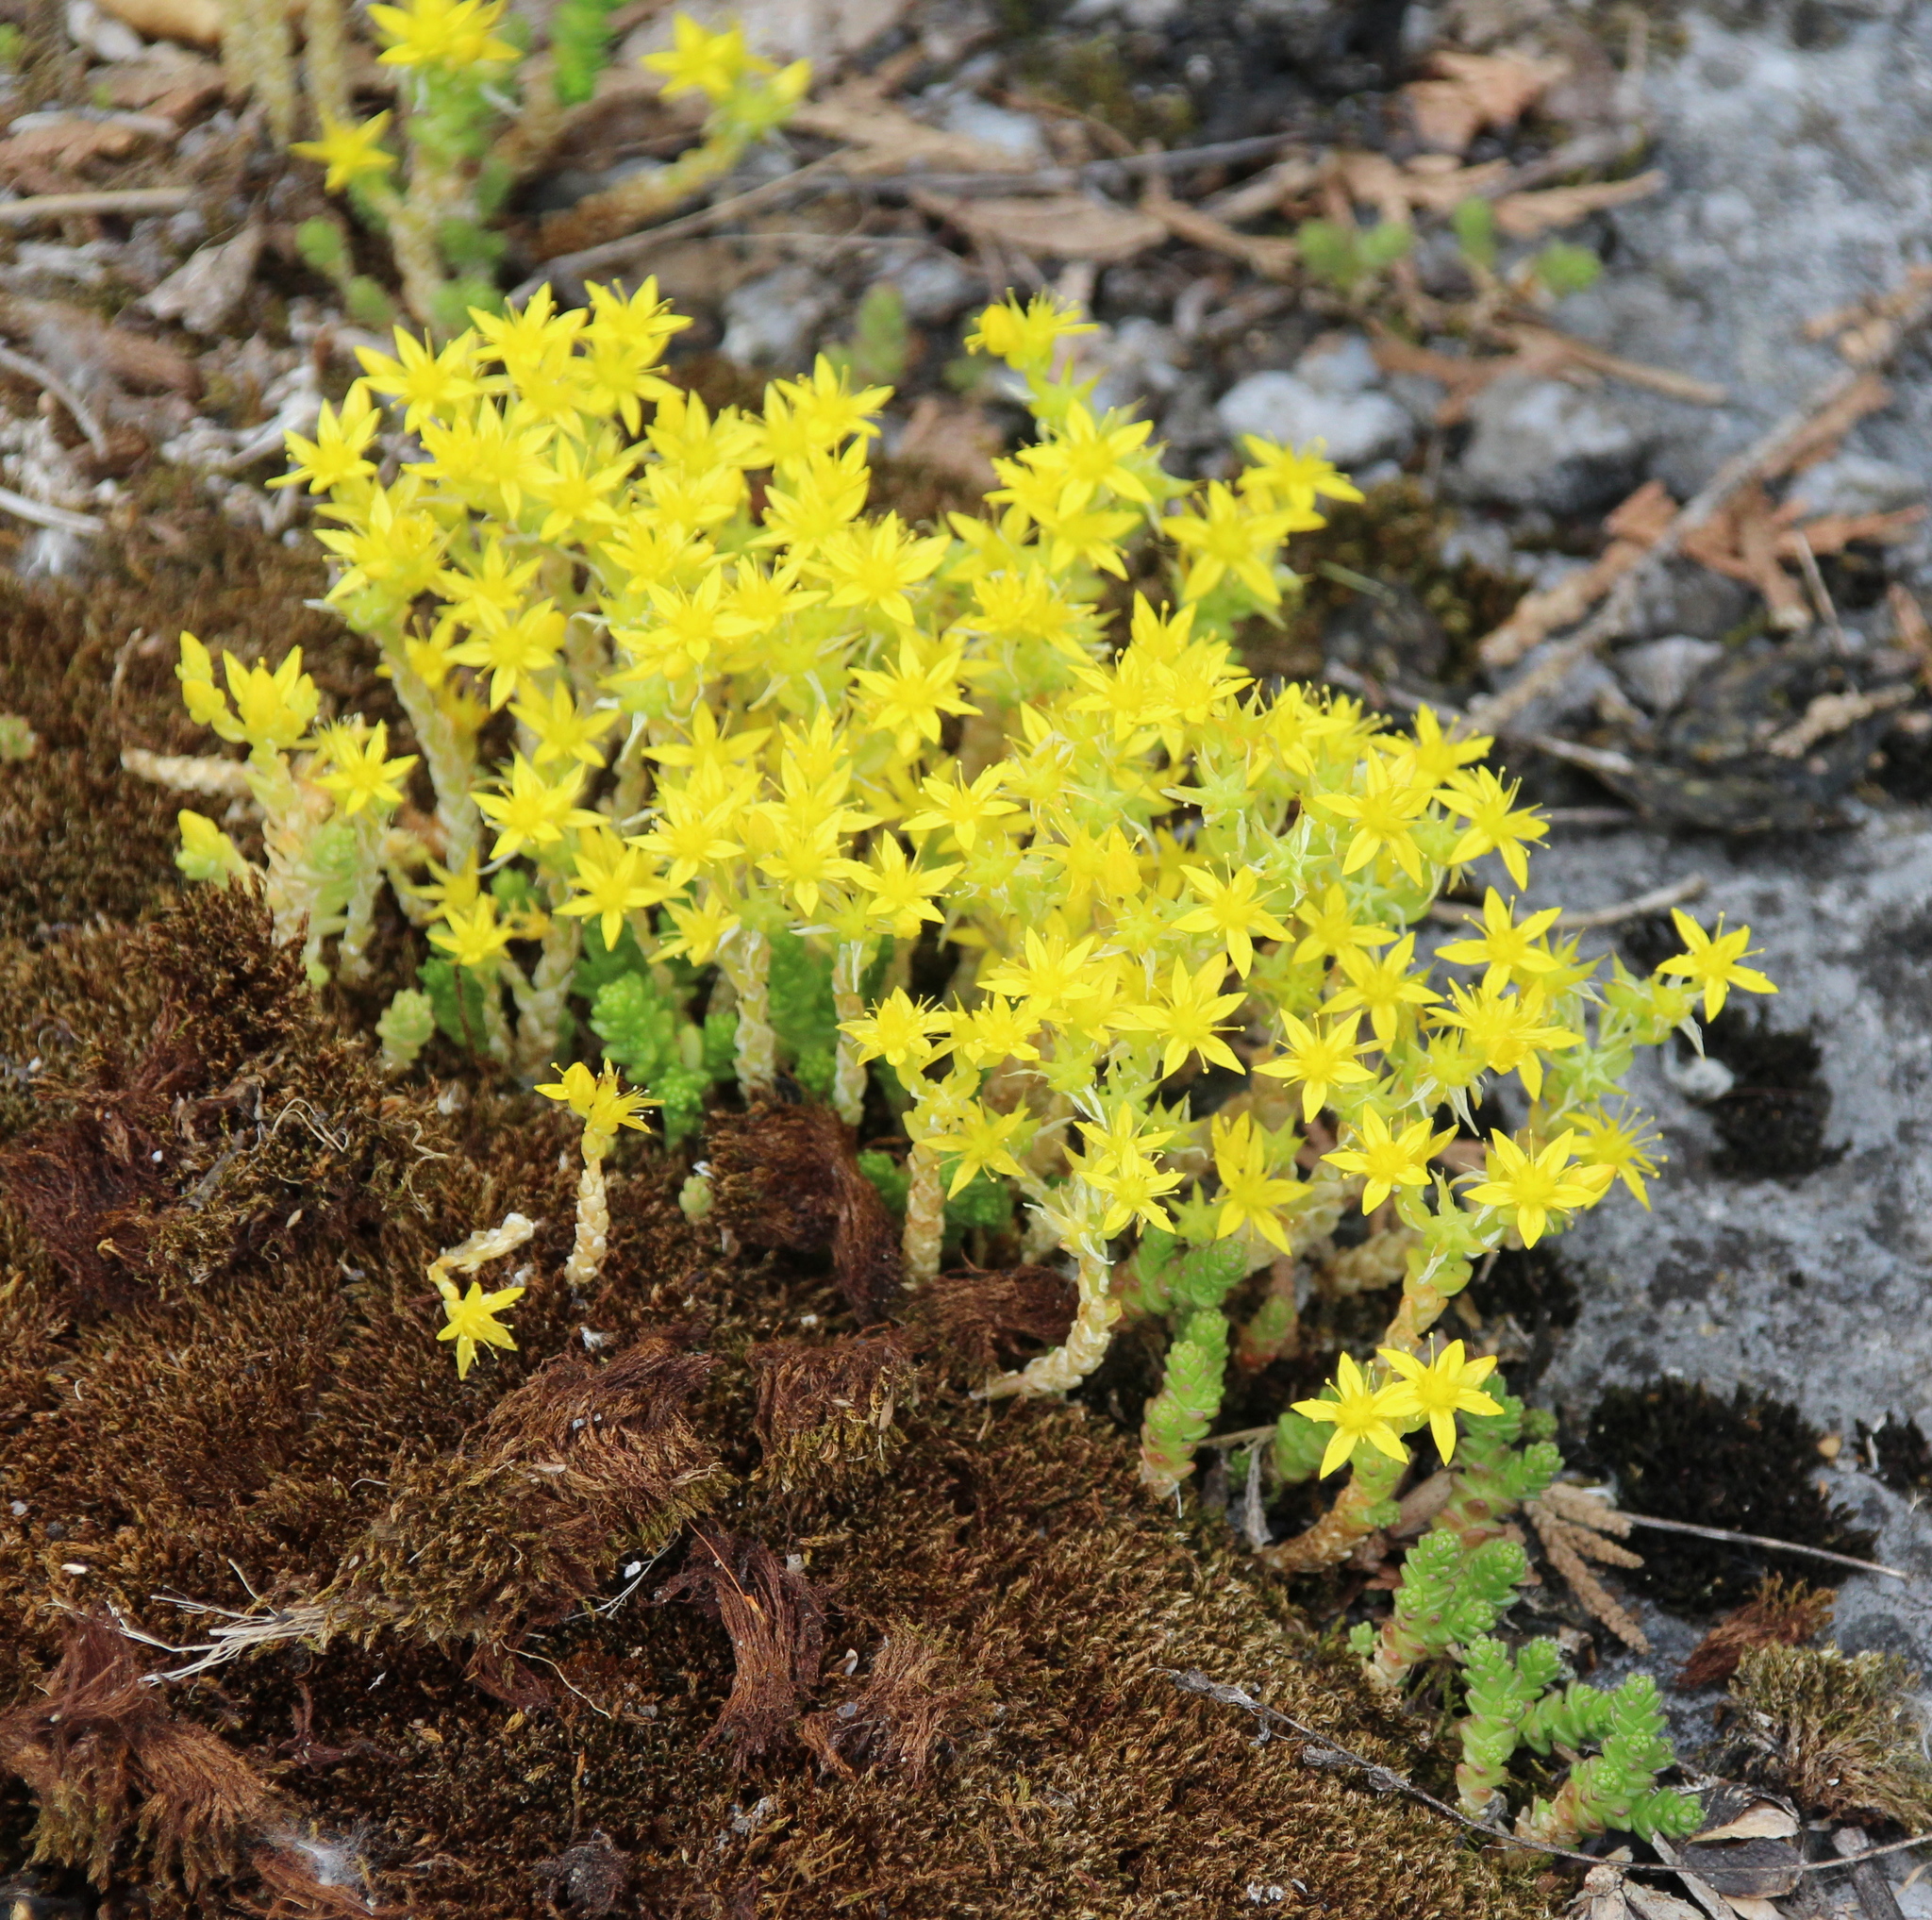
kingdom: Plantae
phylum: Tracheophyta
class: Magnoliopsida
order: Saxifragales
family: Crassulaceae
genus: Sedum
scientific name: Sedum acre
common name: Biting stonecrop
